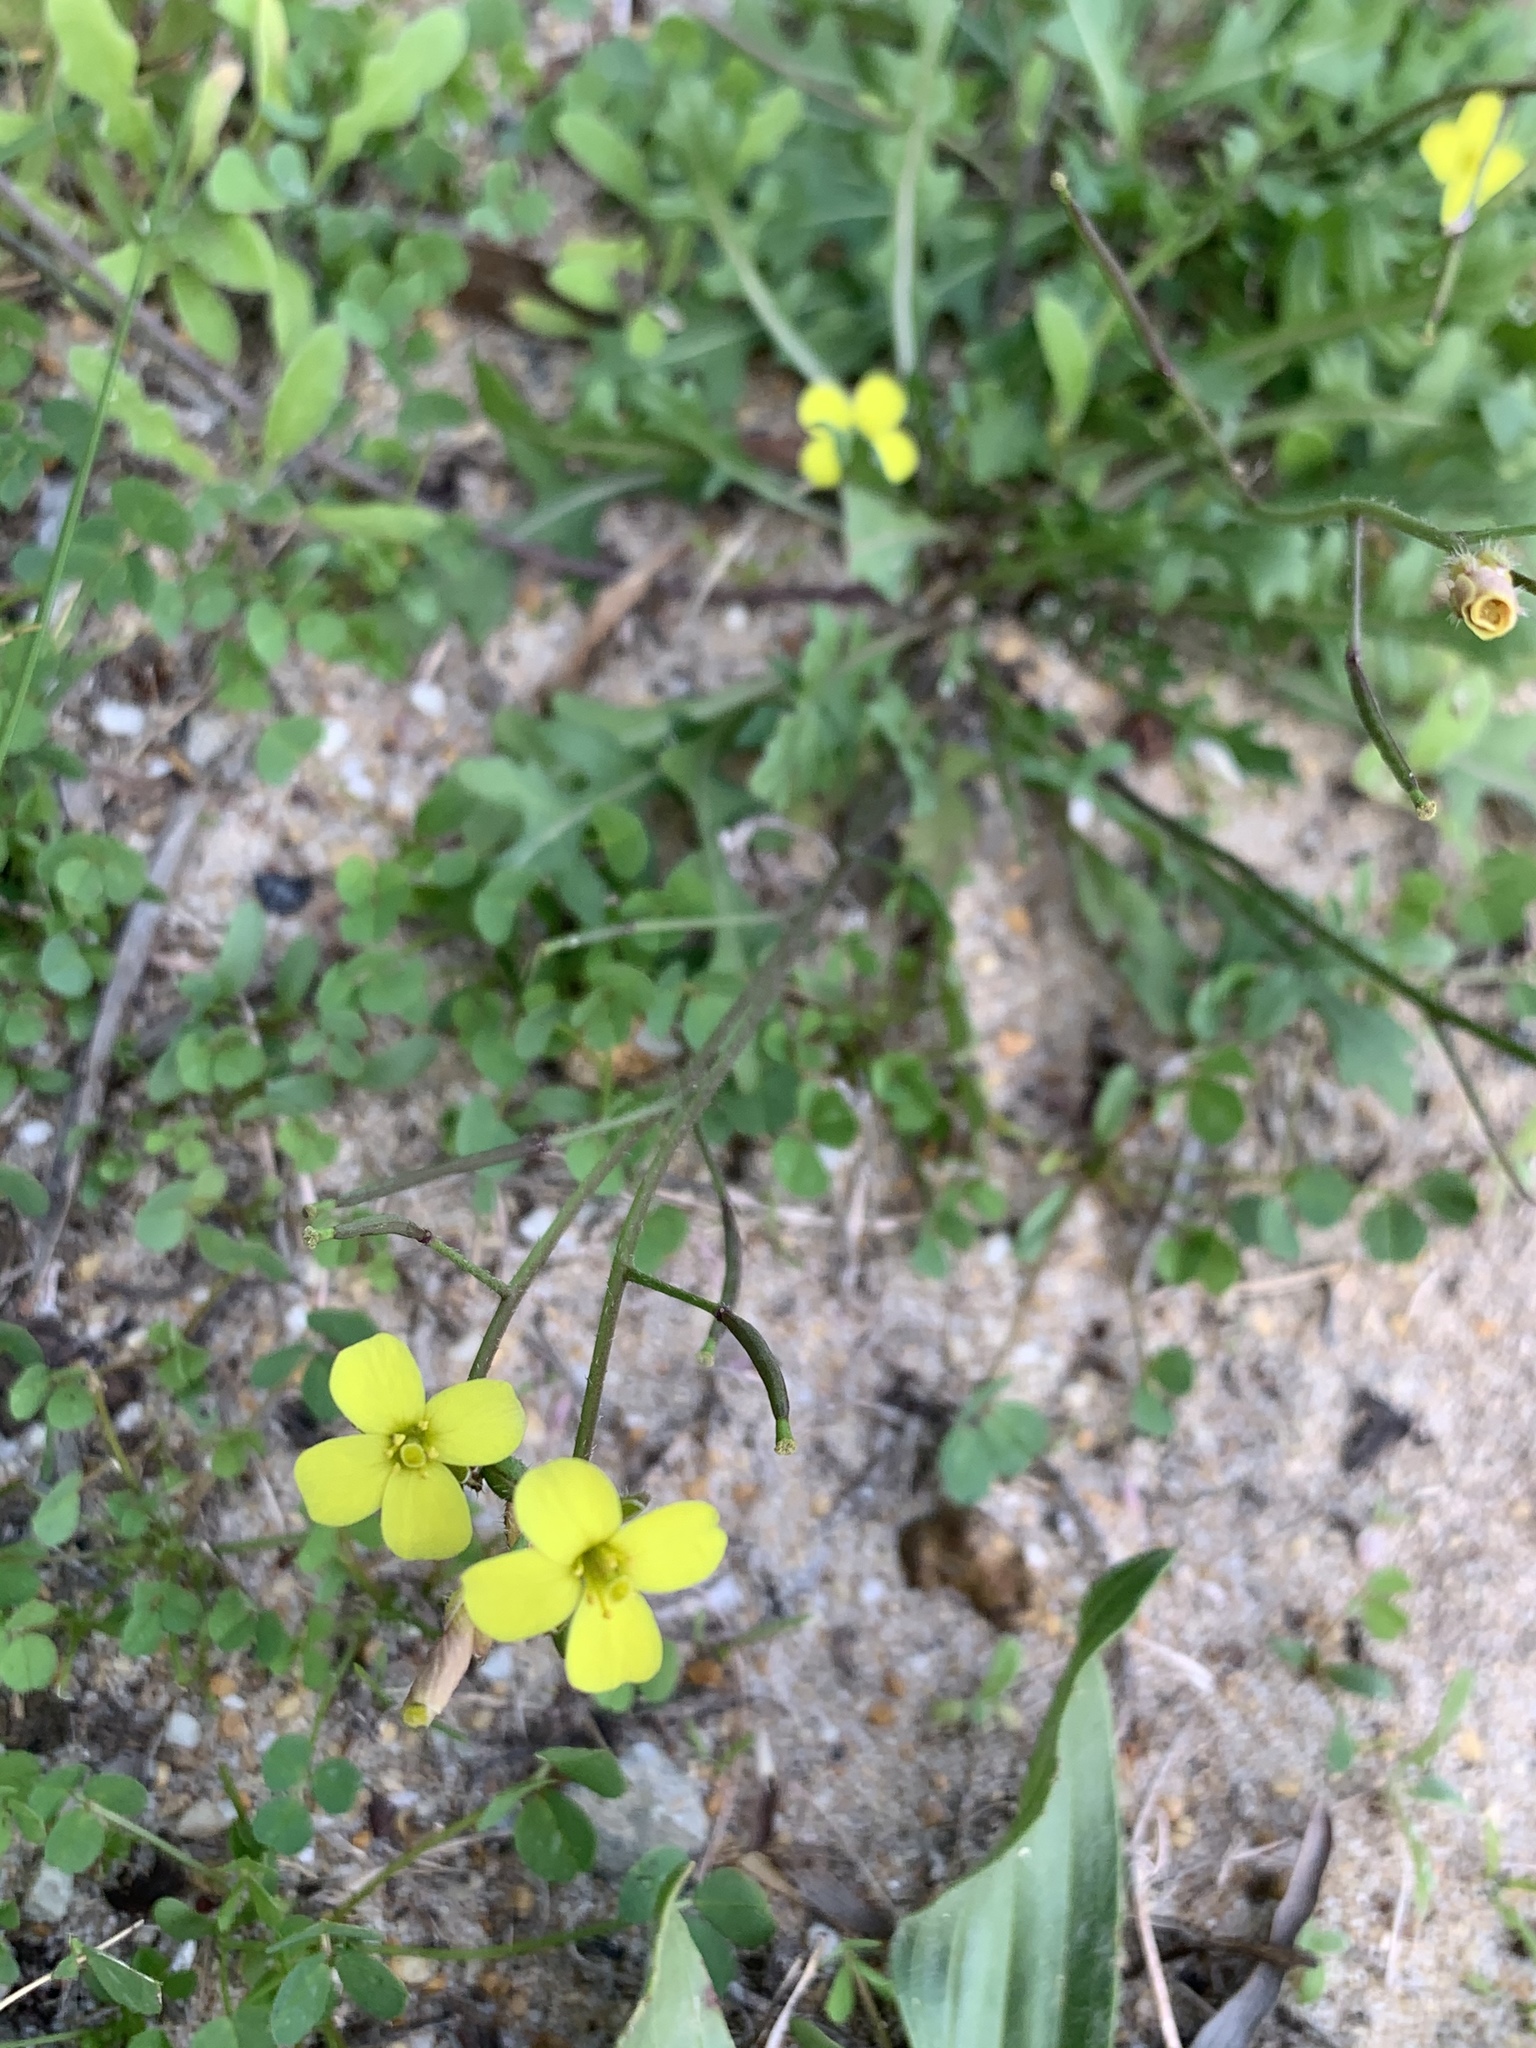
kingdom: Plantae
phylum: Tracheophyta
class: Magnoliopsida
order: Brassicales
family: Brassicaceae
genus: Diplotaxis
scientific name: Diplotaxis muralis
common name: Annual wall-rocket
